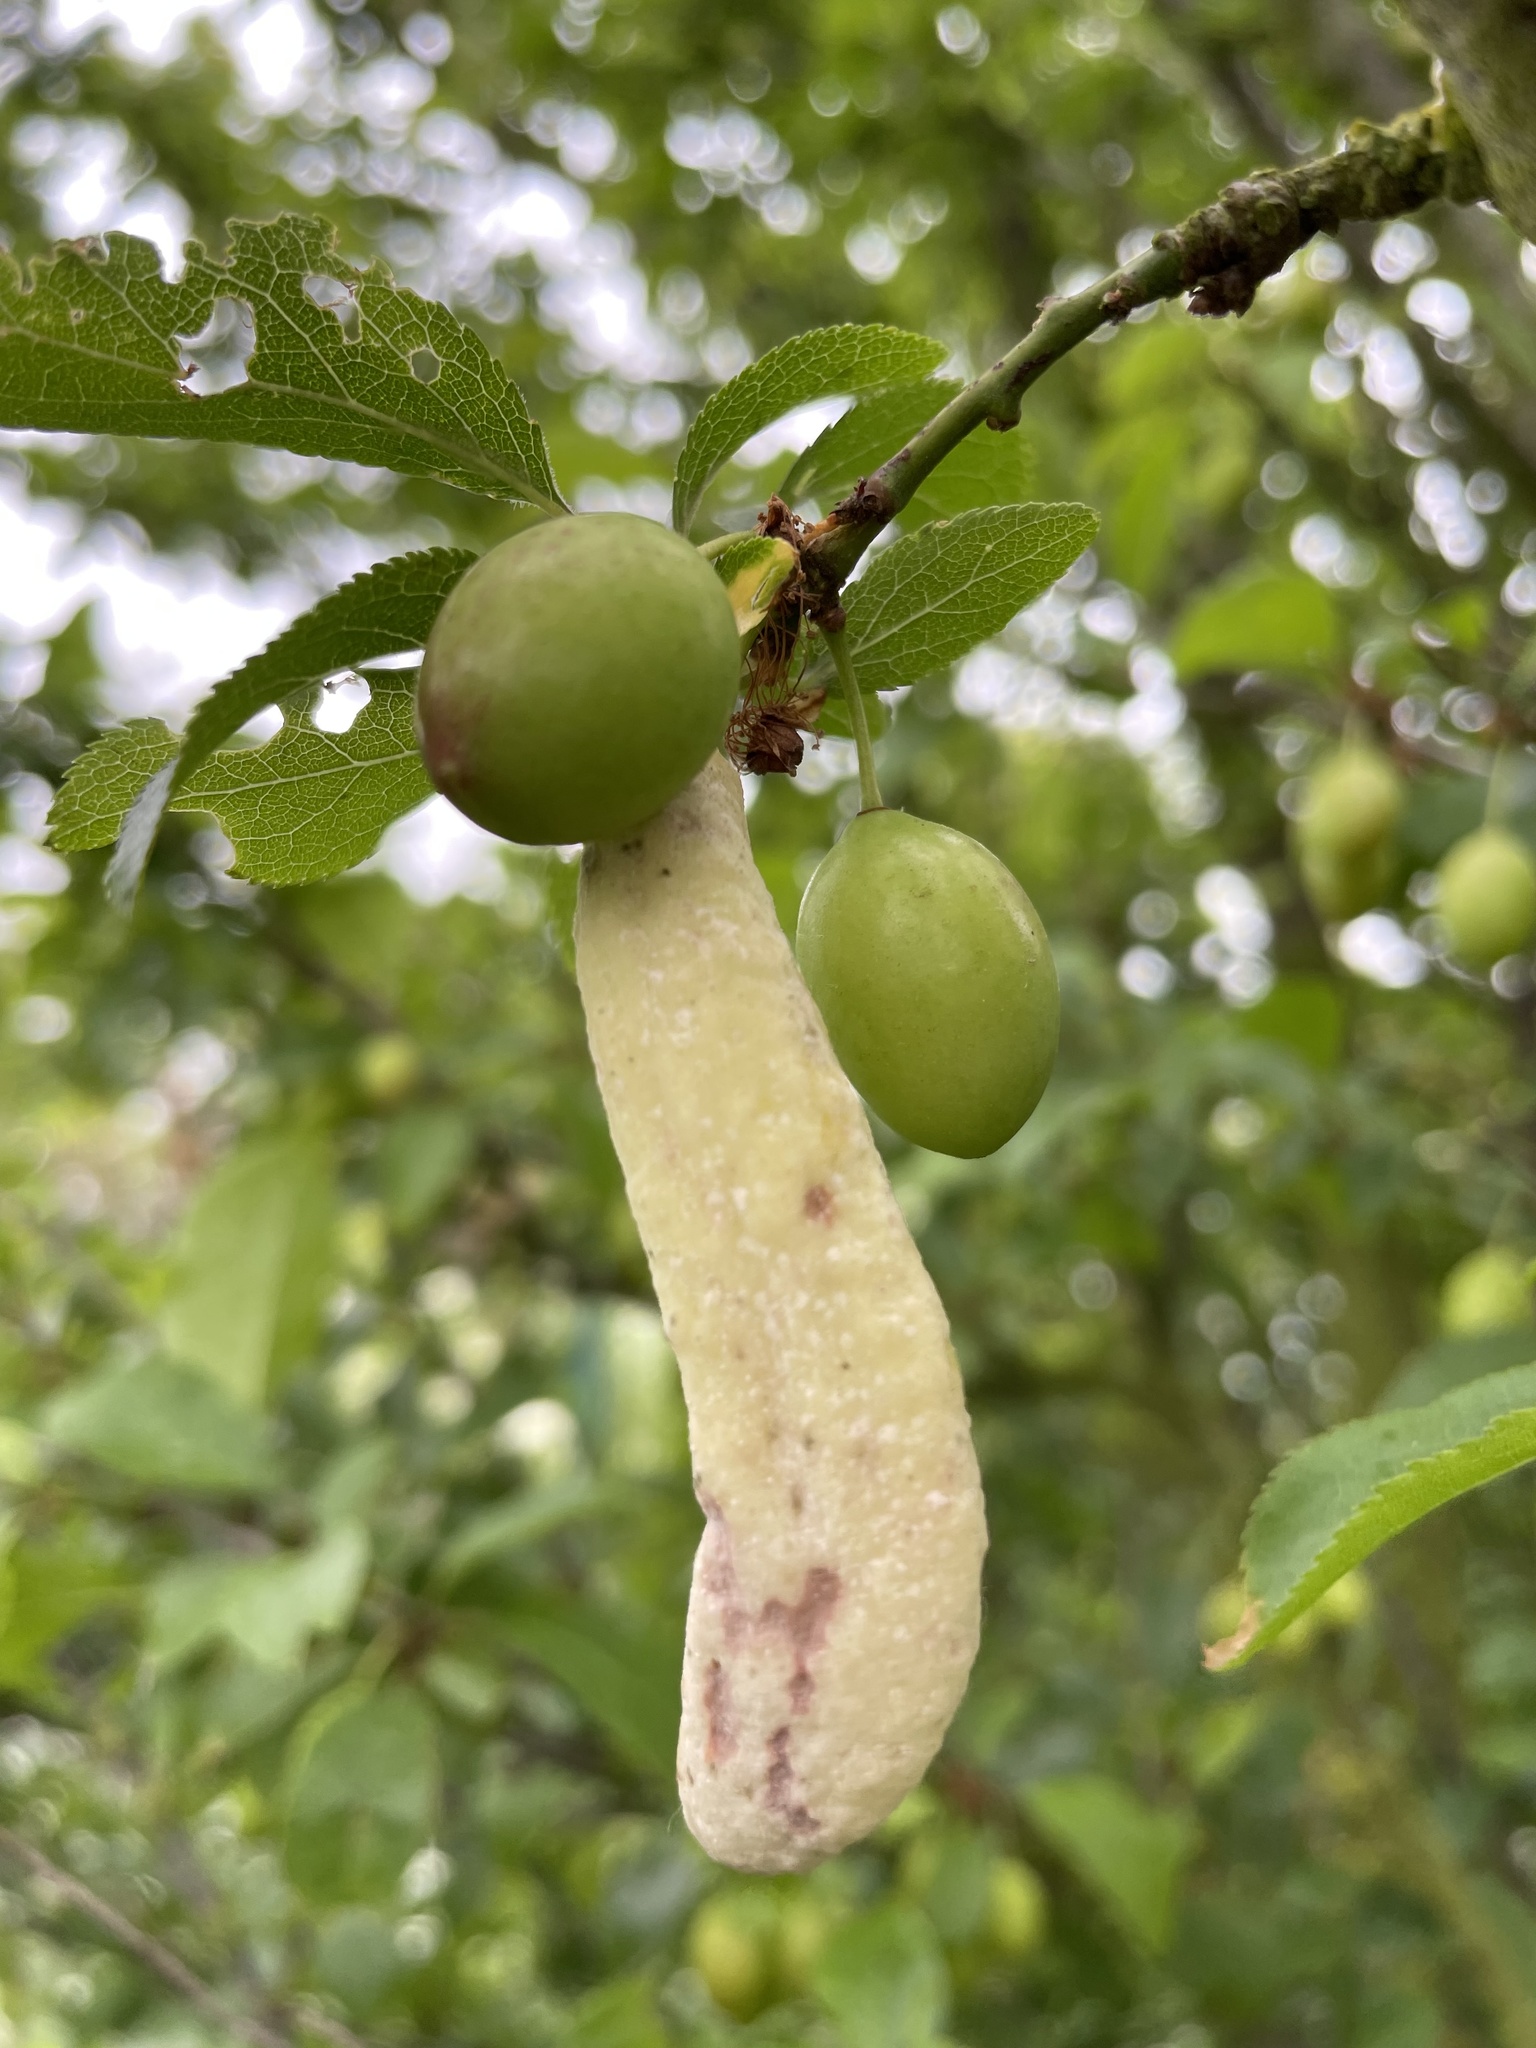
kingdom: Fungi
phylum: Ascomycota
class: Taphrinomycetes
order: Taphrinales
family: Taphrinaceae
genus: Taphrina
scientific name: Taphrina pruni
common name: Pocket plum
